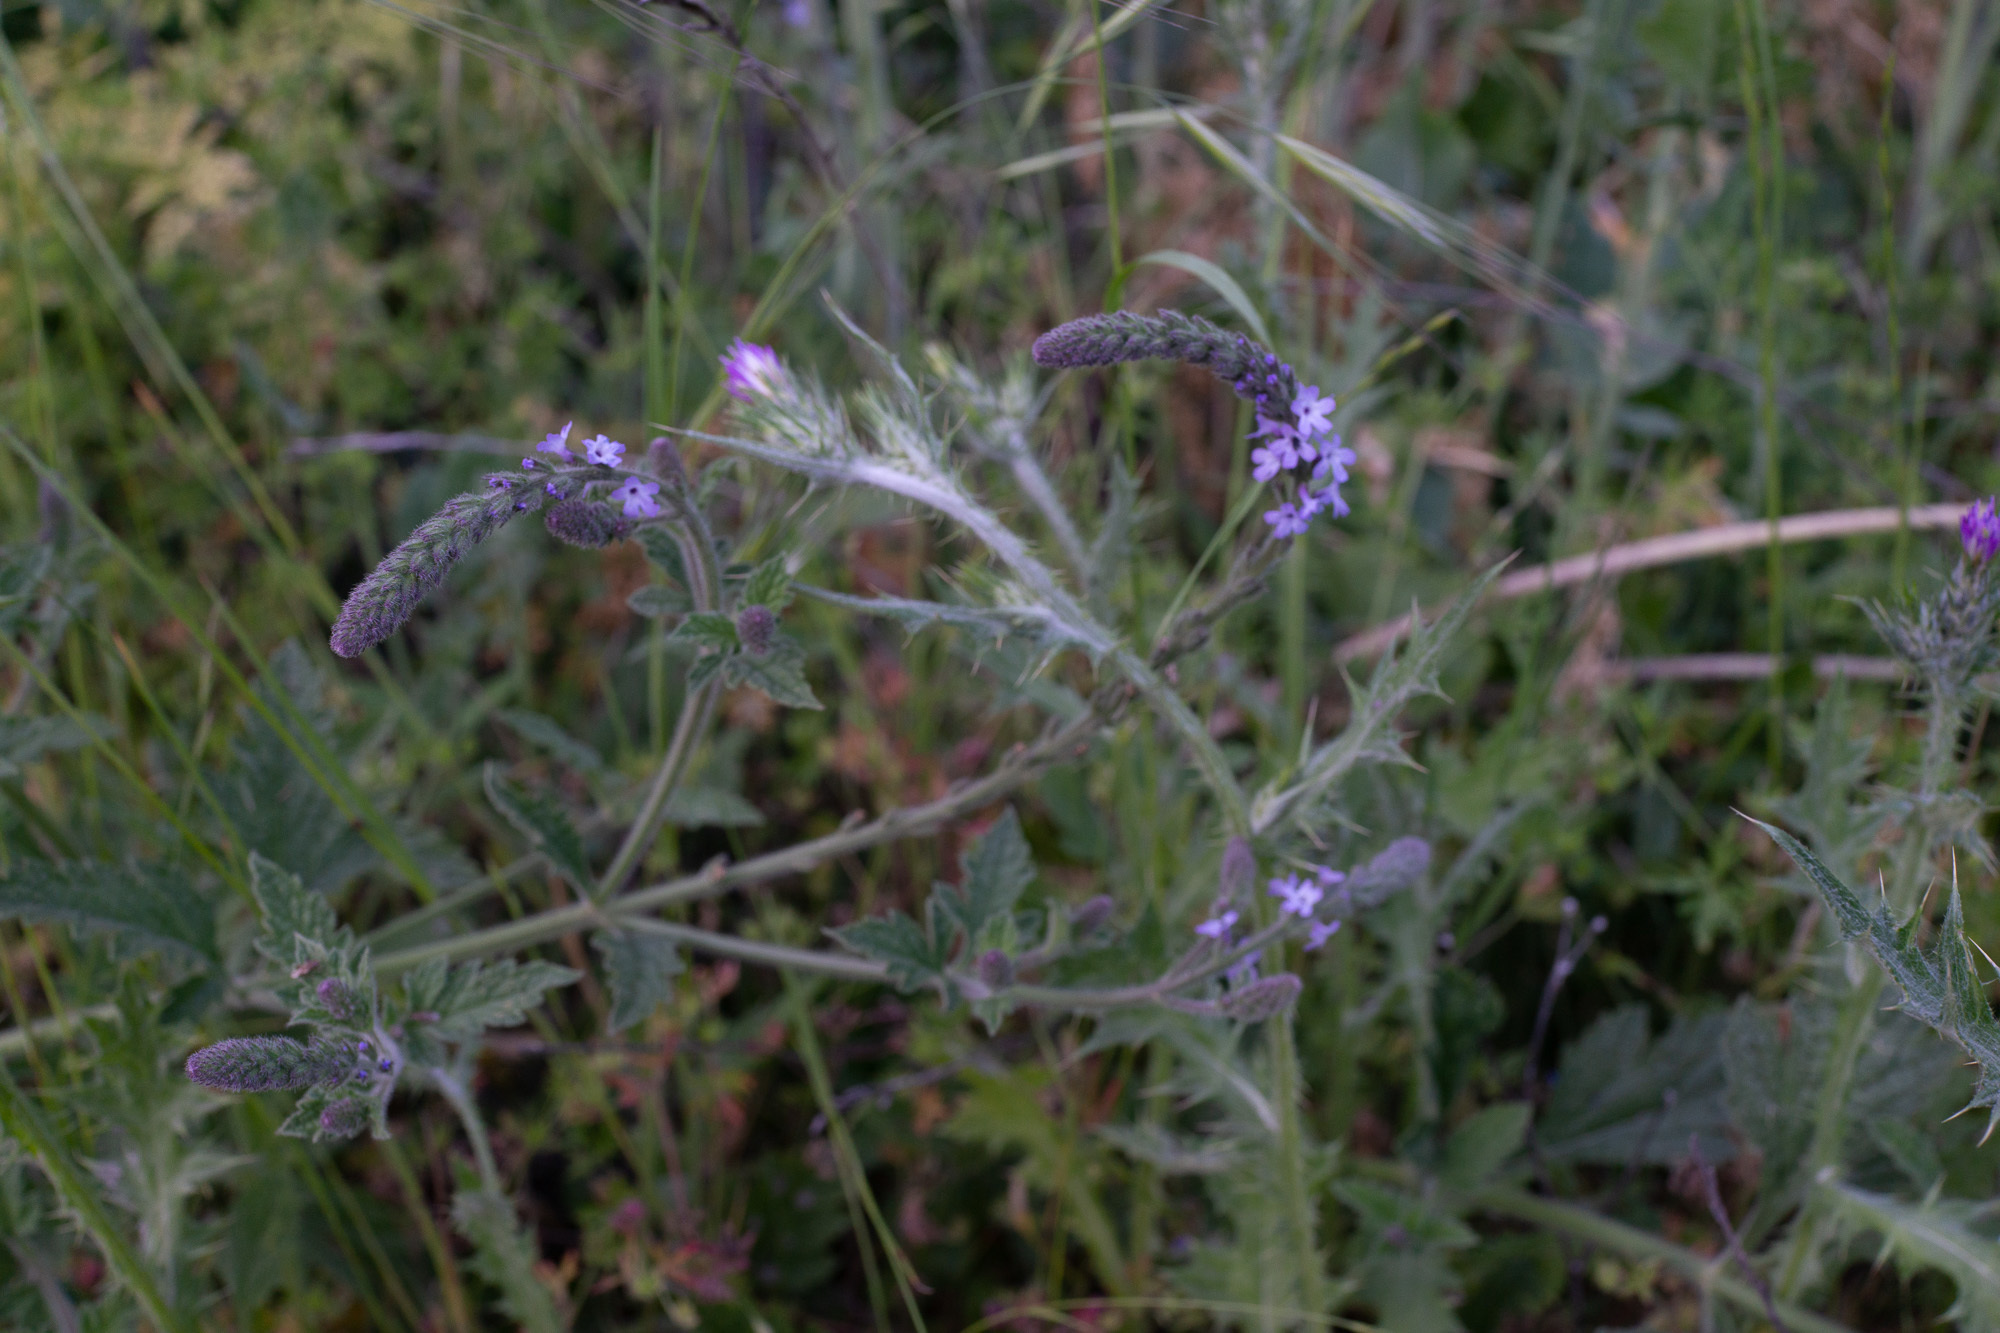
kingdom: Plantae
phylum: Tracheophyta
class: Magnoliopsida
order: Lamiales
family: Verbenaceae
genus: Verbena
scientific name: Verbena lasiostachys
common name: Vervain
